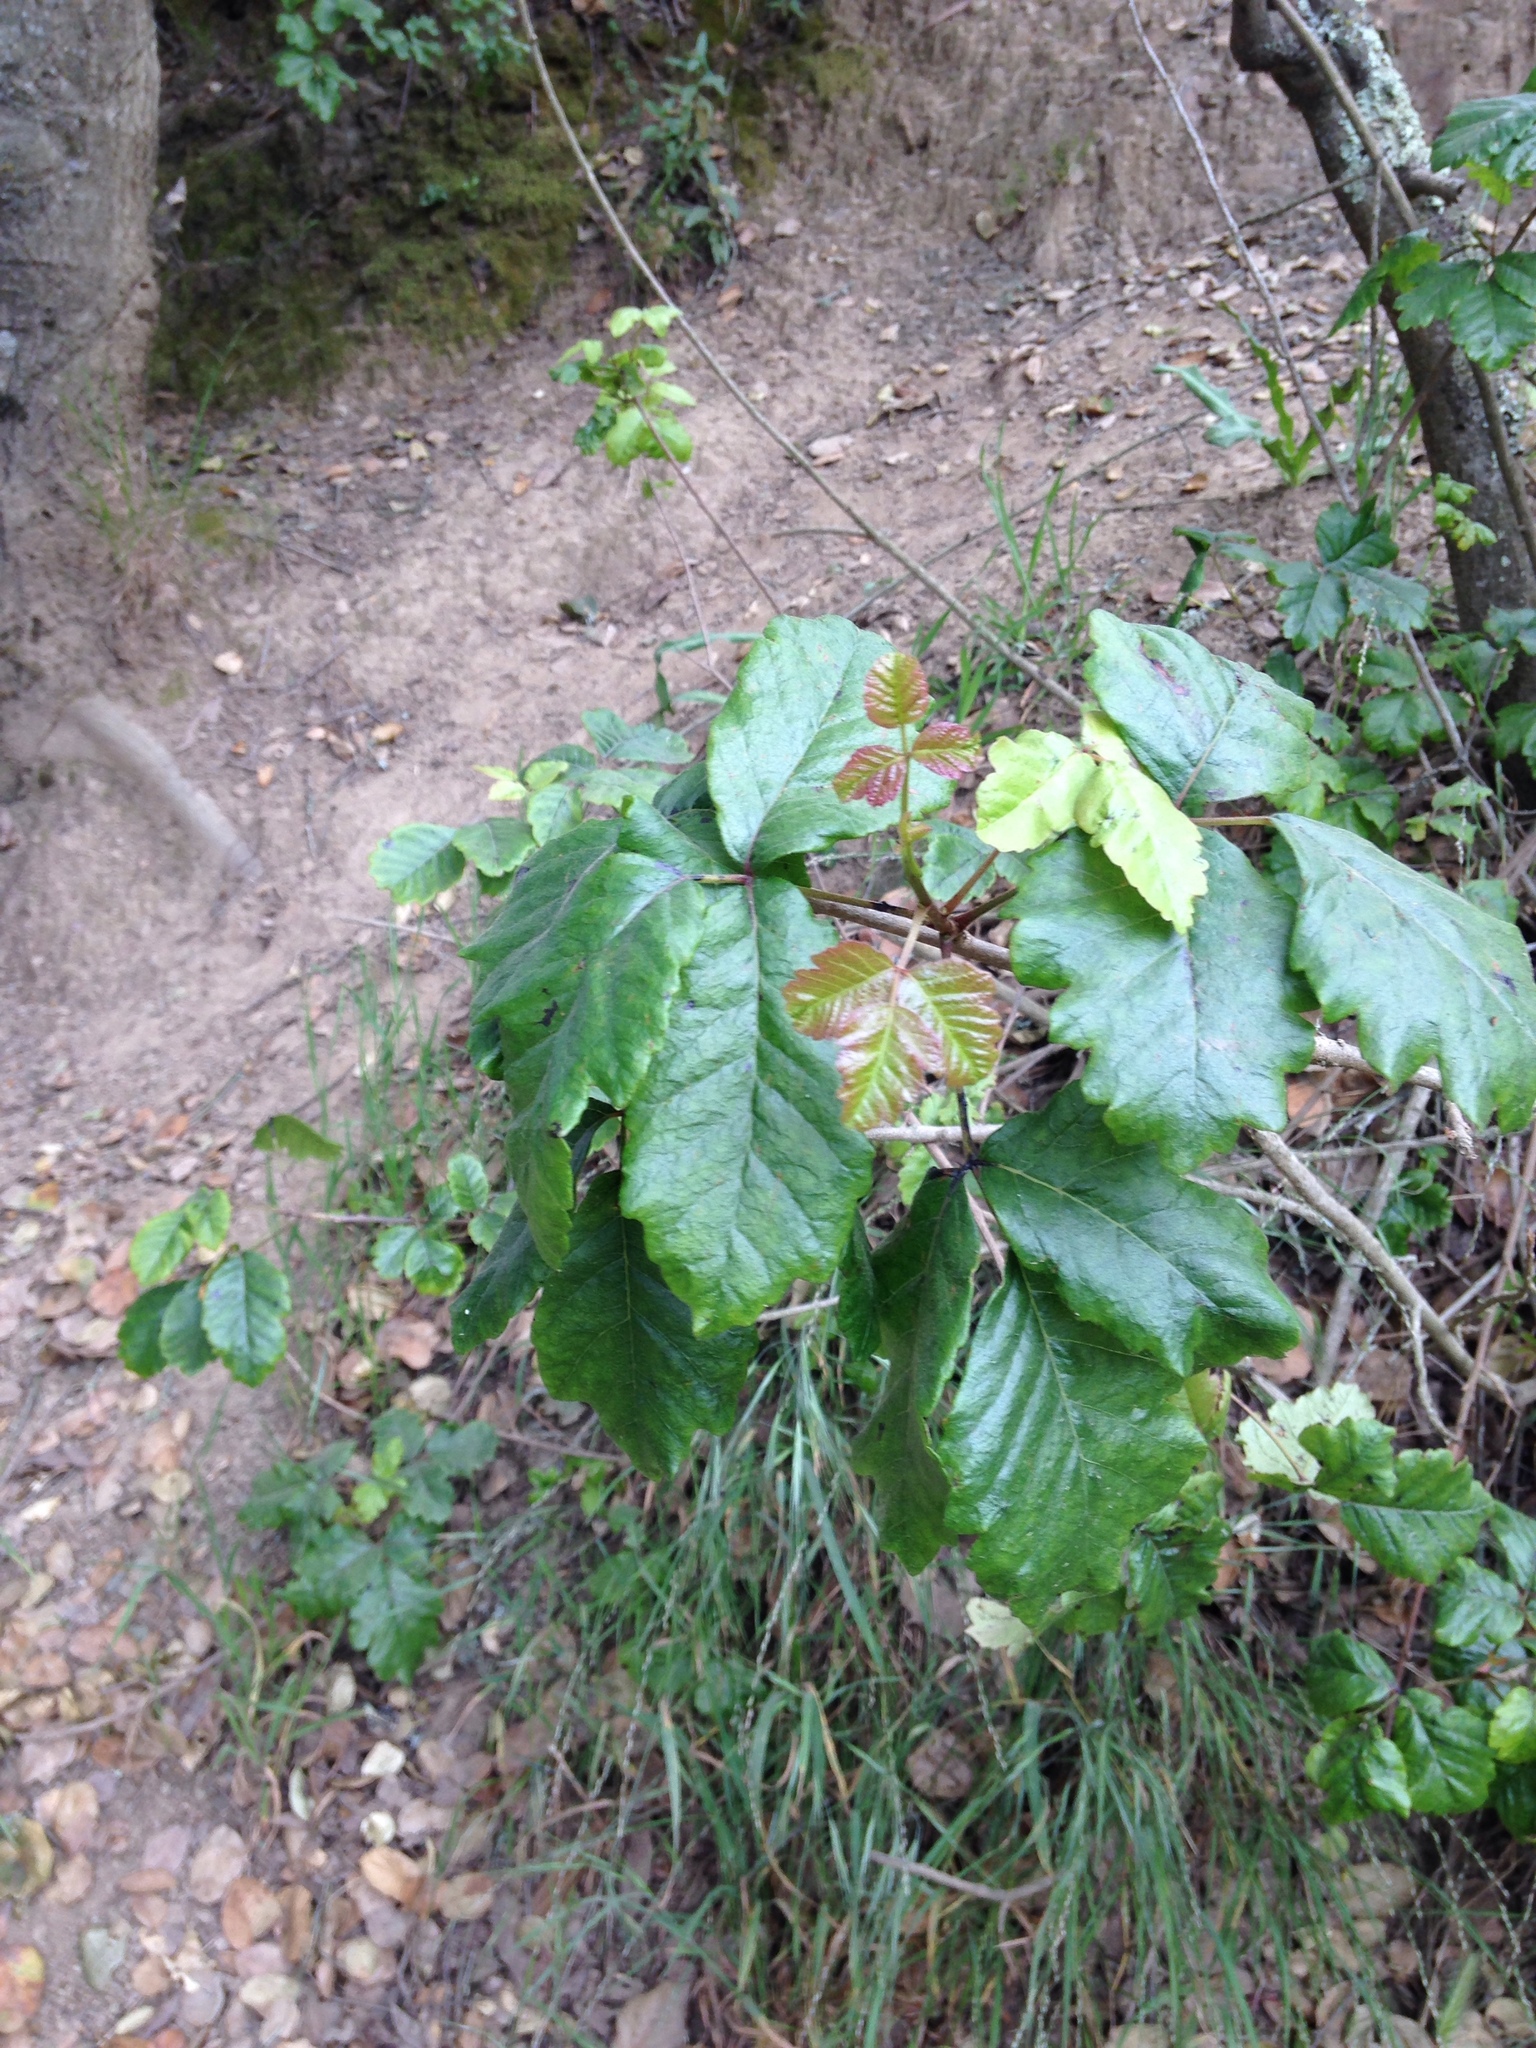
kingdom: Plantae
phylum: Tracheophyta
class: Magnoliopsida
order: Sapindales
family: Anacardiaceae
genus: Toxicodendron
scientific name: Toxicodendron diversilobum
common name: Pacific poison-oak
